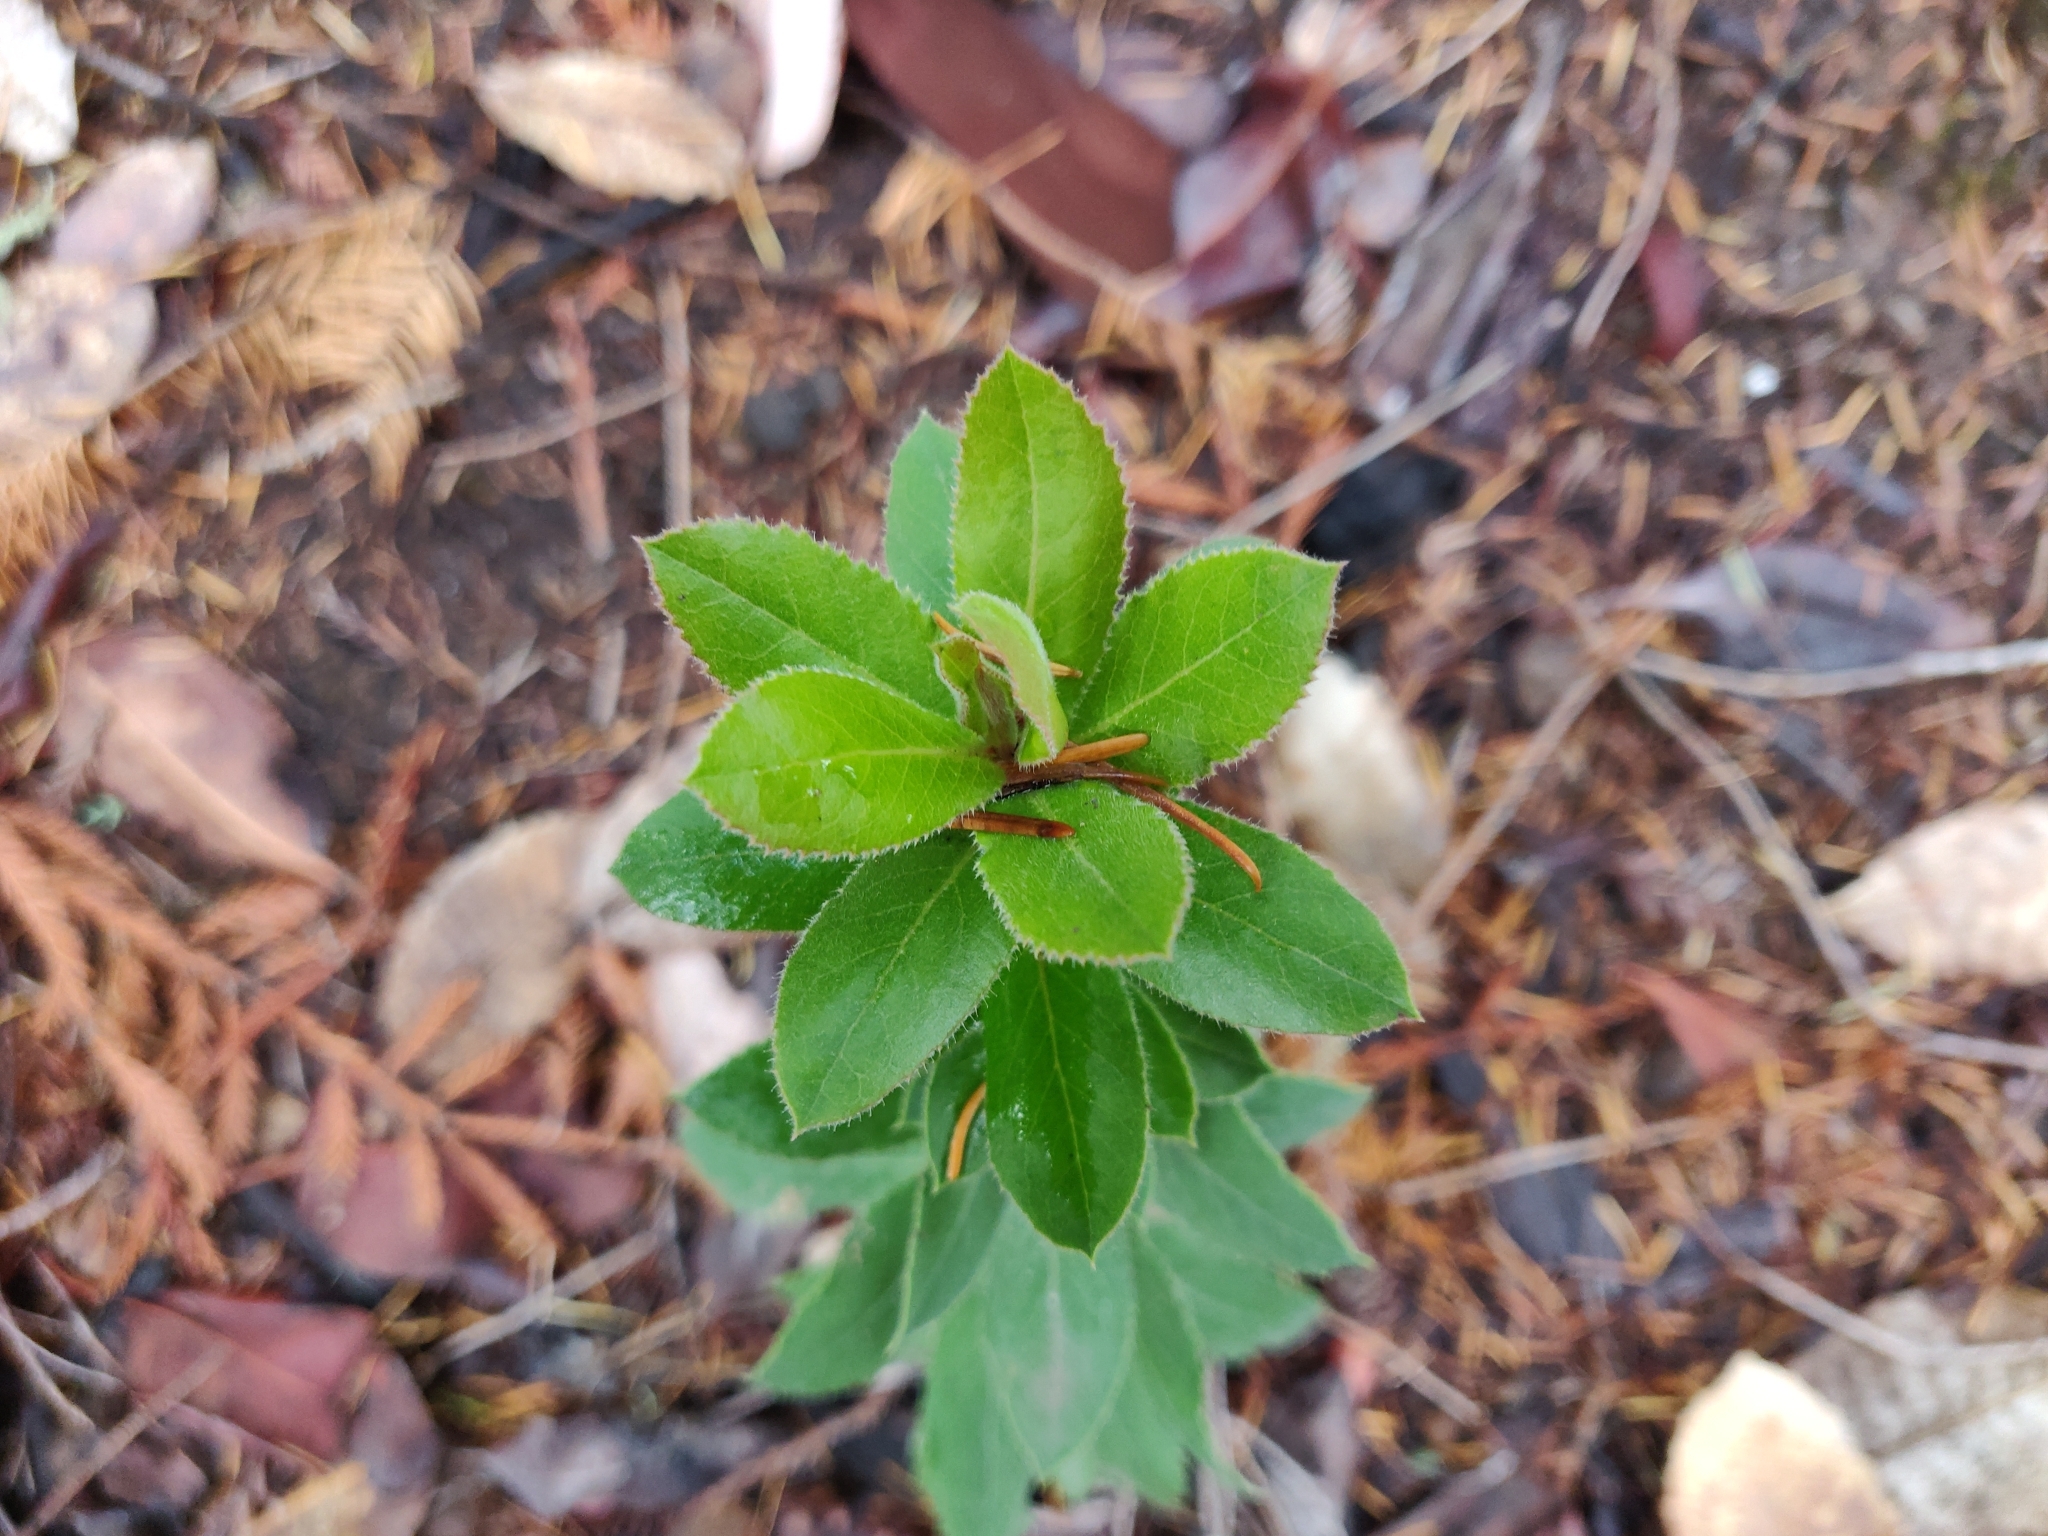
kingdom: Plantae
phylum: Tracheophyta
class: Magnoliopsida
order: Ericales
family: Ericaceae
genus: Arctostaphylos
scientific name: Arctostaphylos andersonii
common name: Santa cruz manzanita
